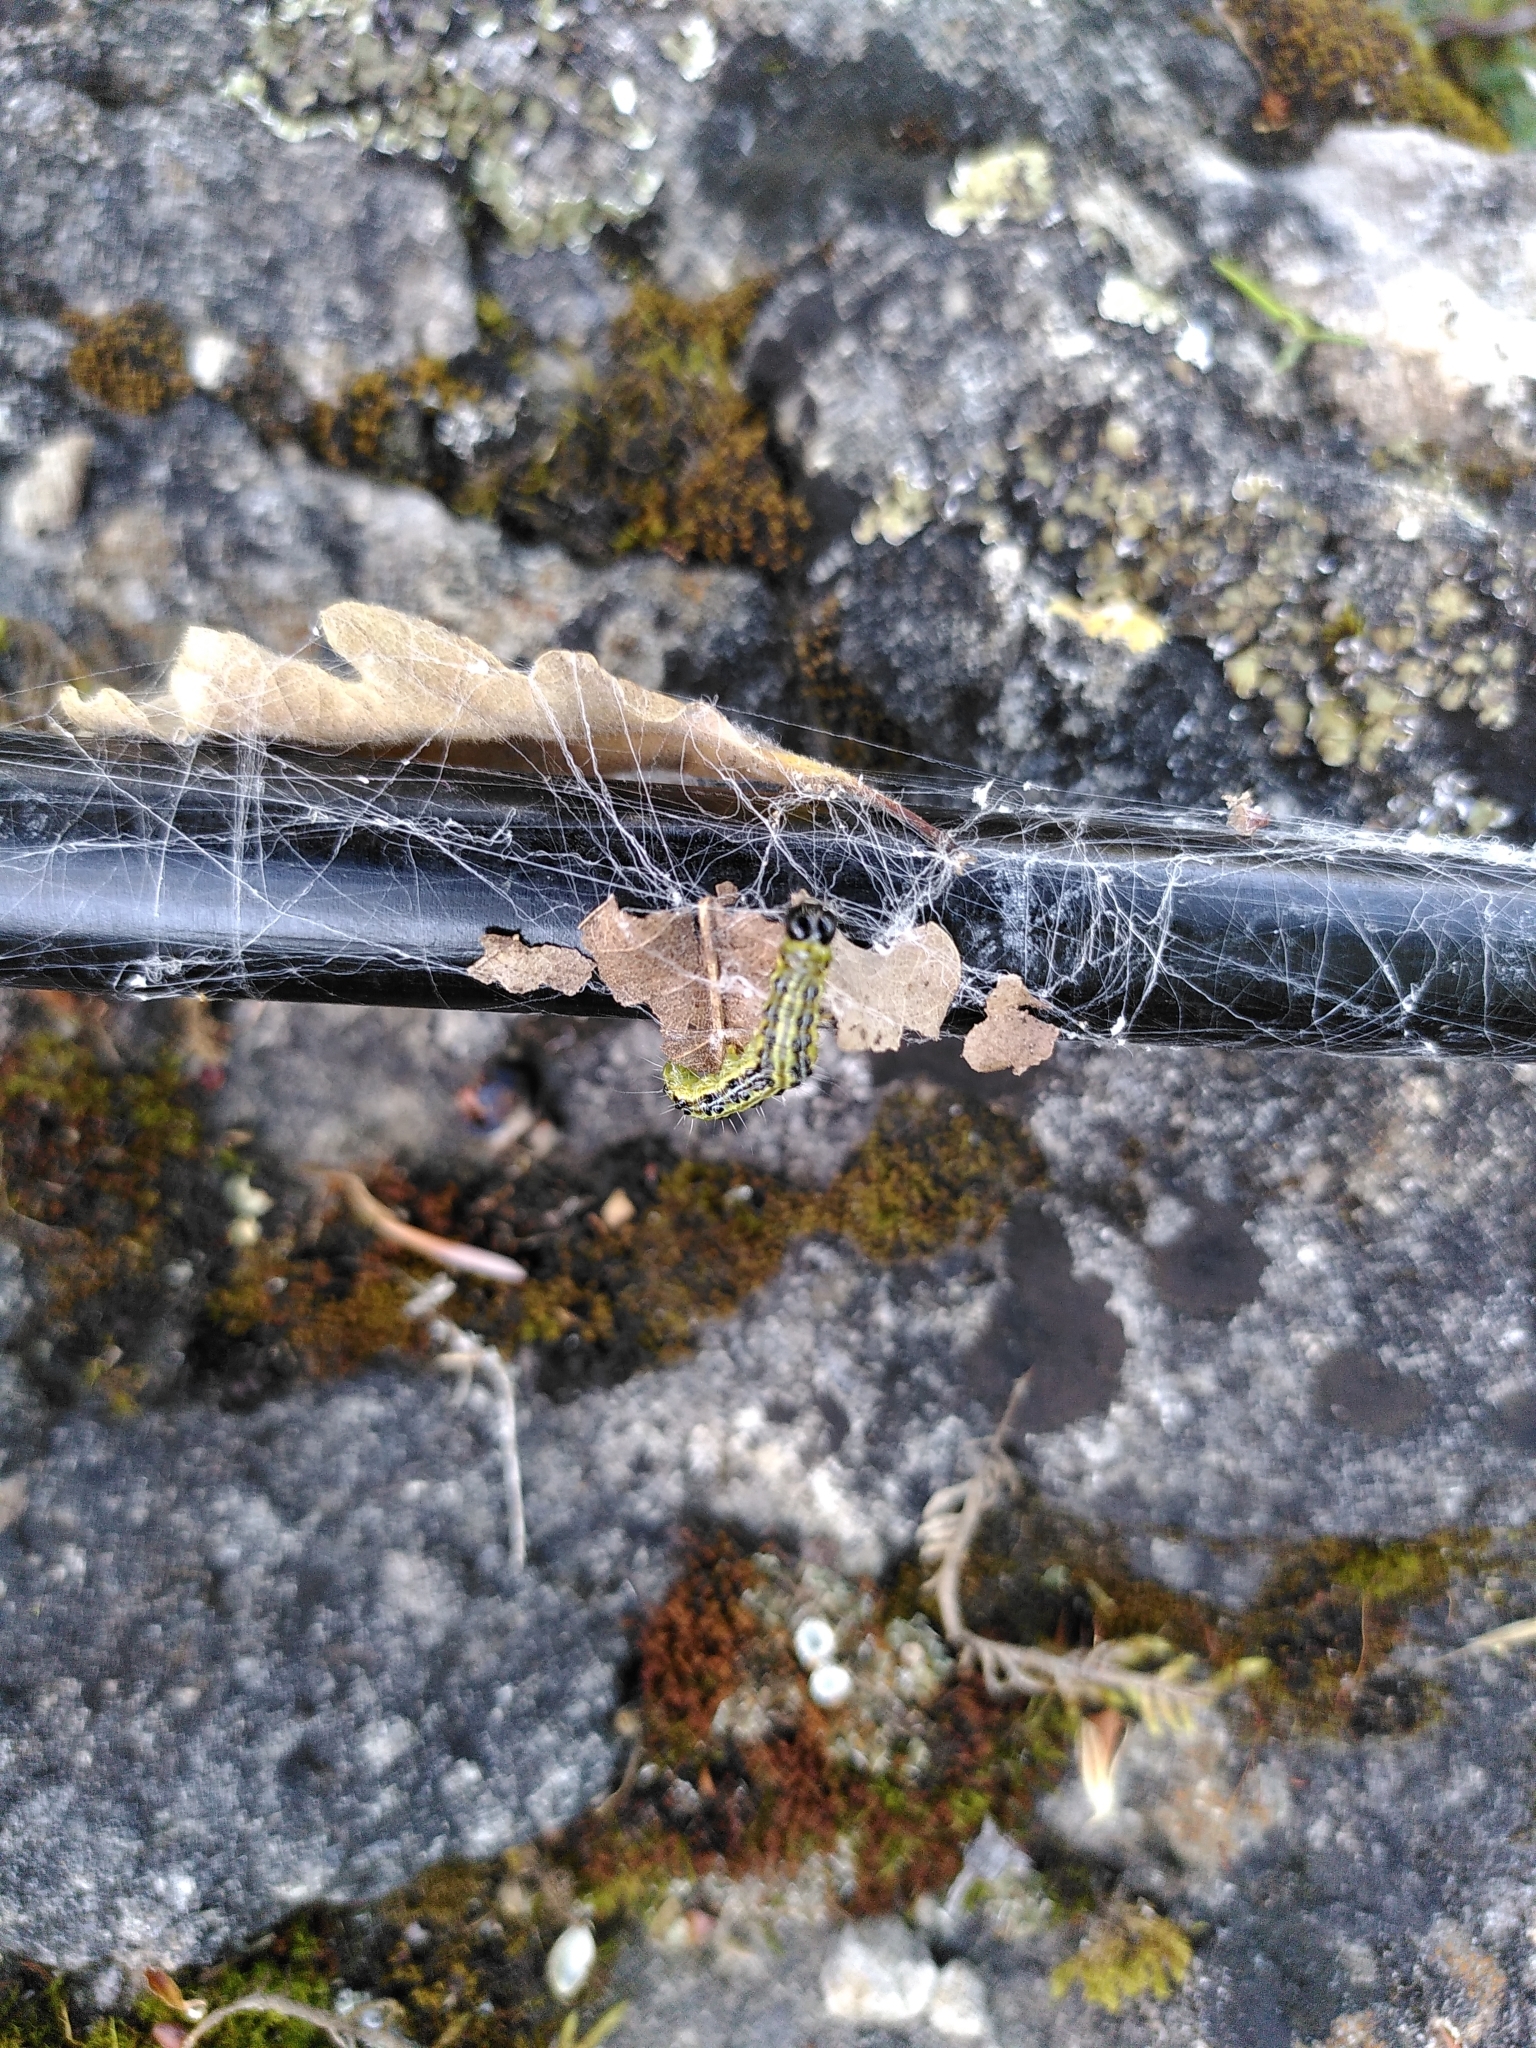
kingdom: Animalia
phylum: Arthropoda
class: Insecta
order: Lepidoptera
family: Crambidae
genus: Cydalima
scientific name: Cydalima perspectalis
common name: Box tree moth
